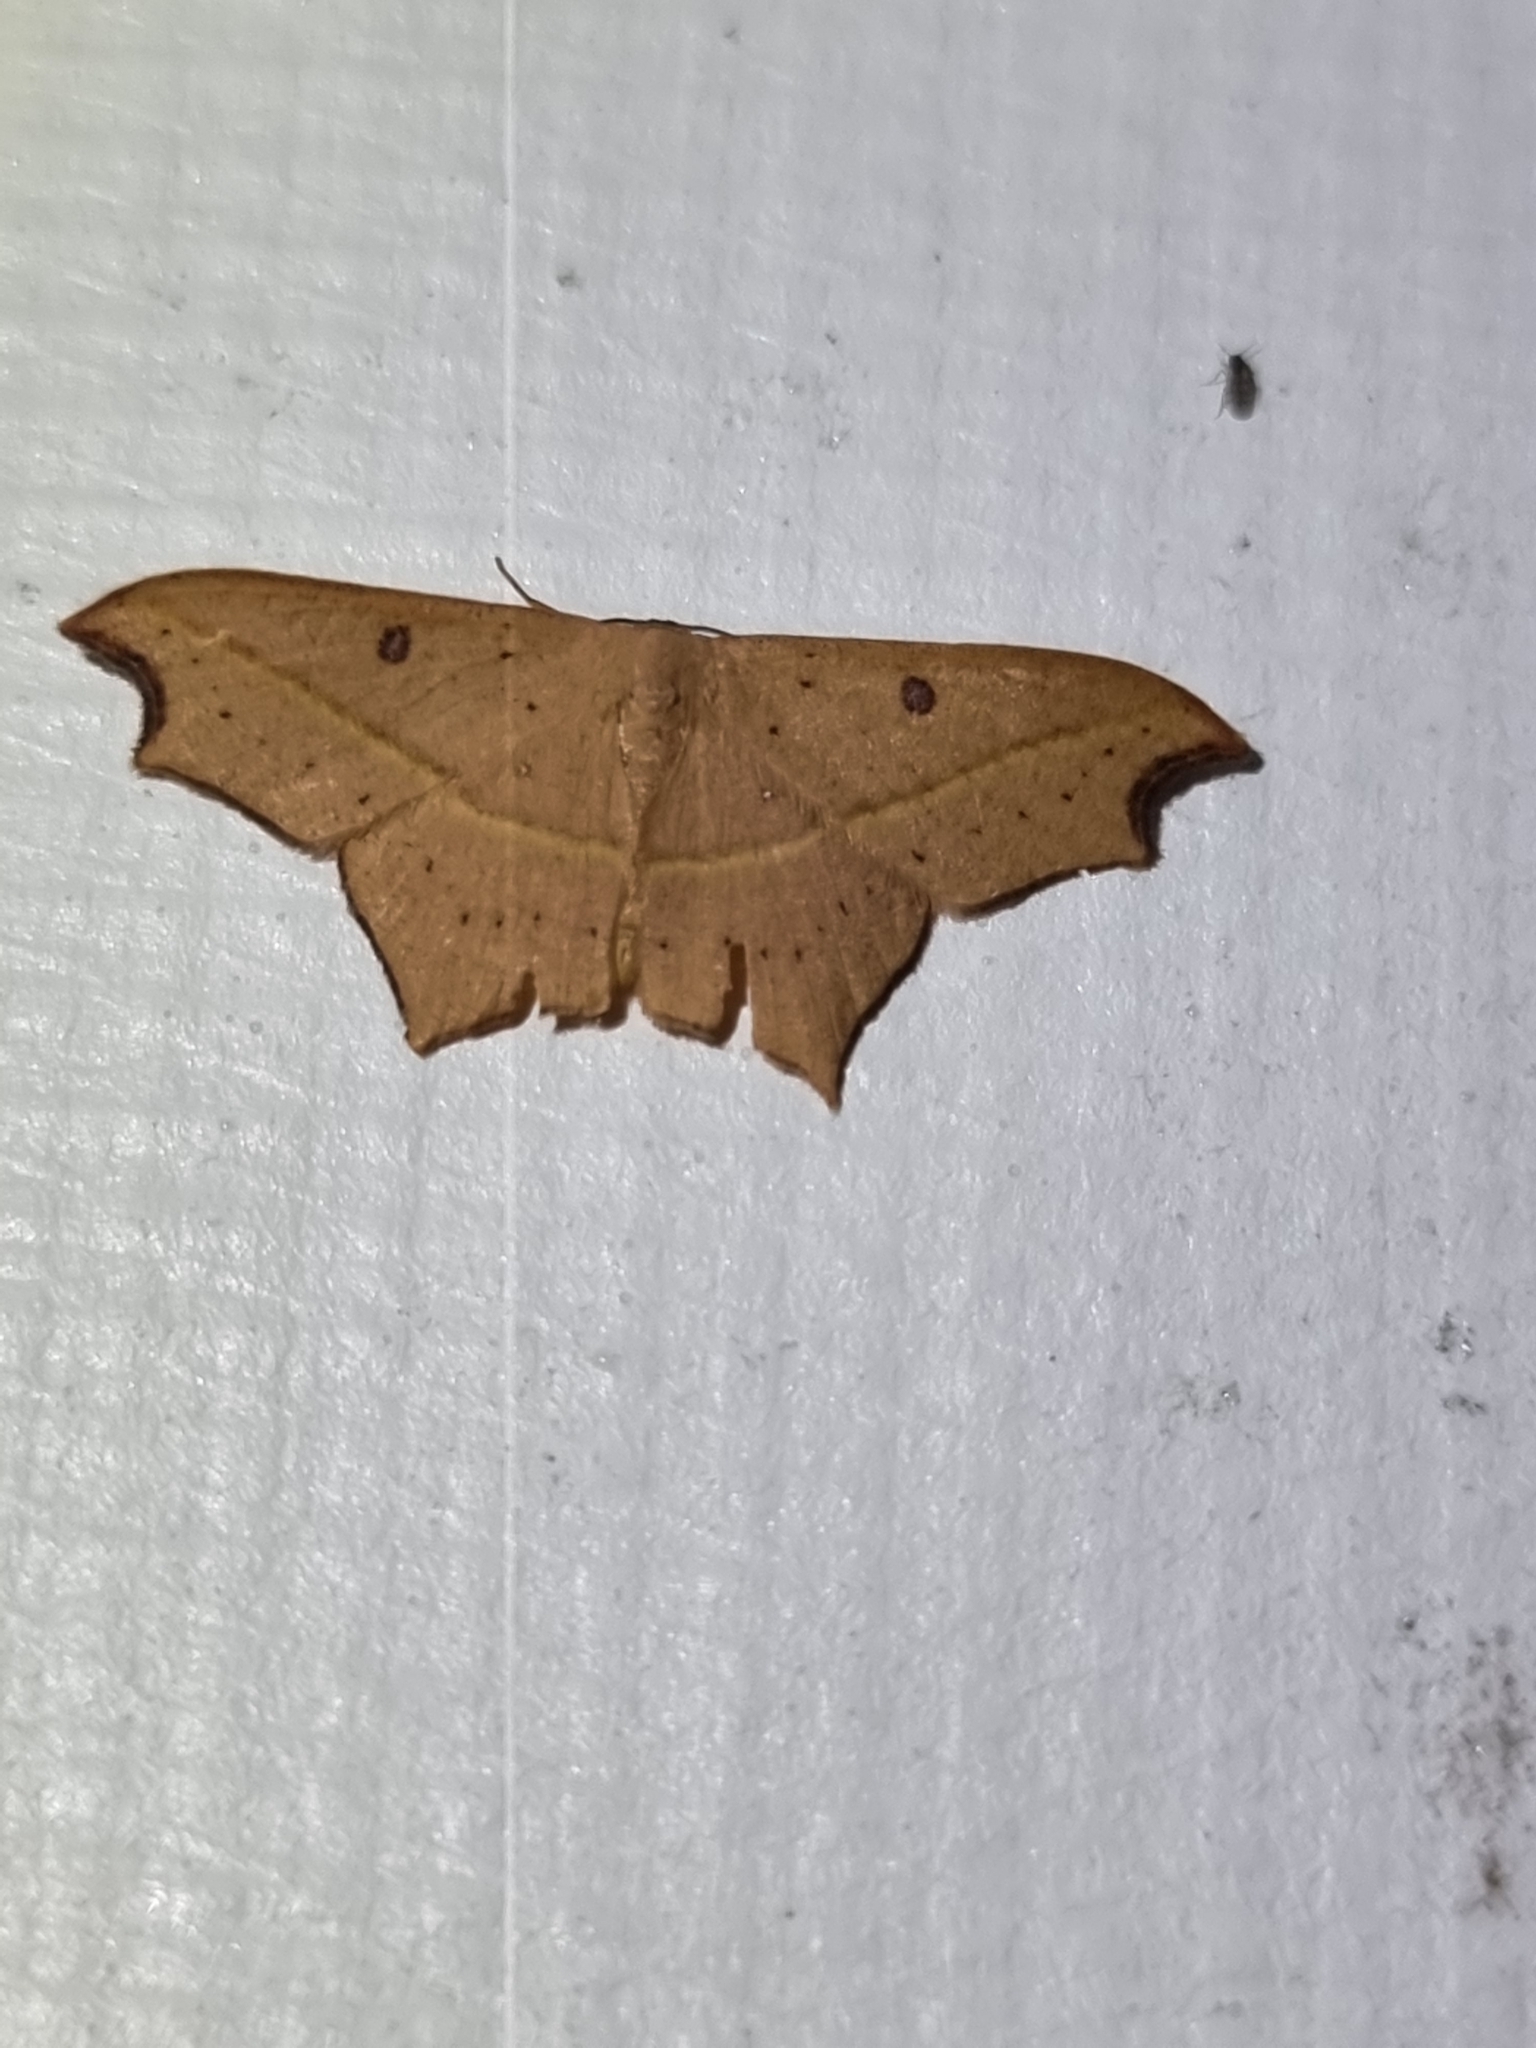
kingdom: Animalia
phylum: Arthropoda
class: Insecta
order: Lepidoptera
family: Geometridae
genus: Traminda
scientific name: Traminda aventiaria
